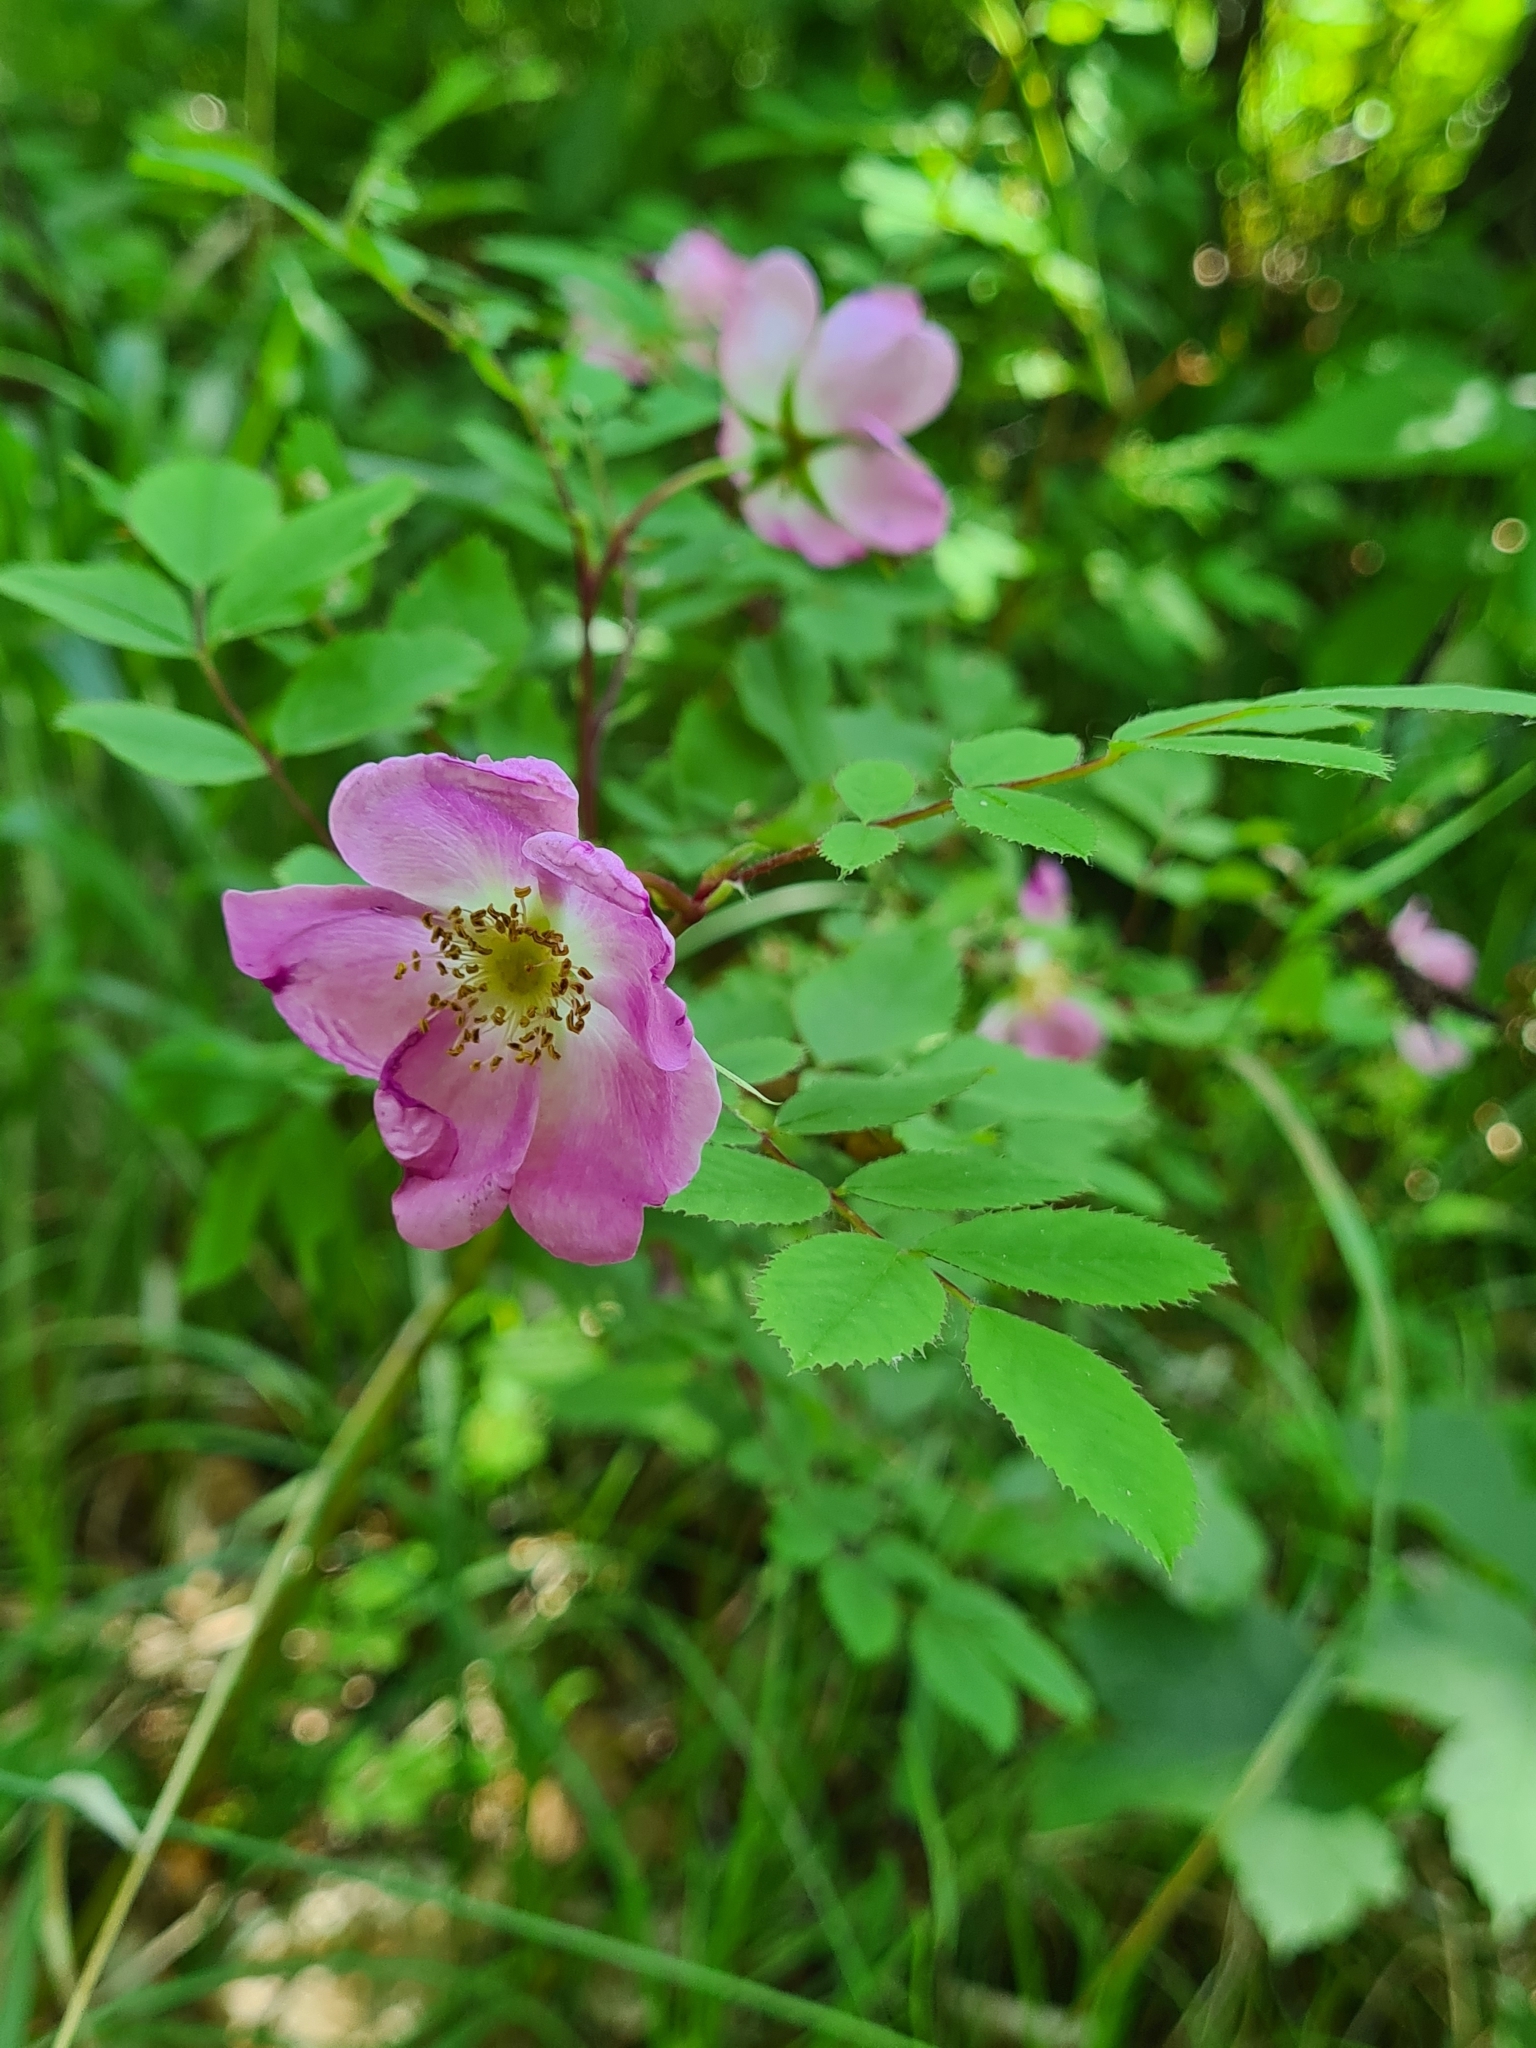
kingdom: Plantae
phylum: Tracheophyta
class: Magnoliopsida
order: Rosales
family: Rosaceae
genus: Rosa
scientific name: Rosa pendulina
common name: Alpine rose
